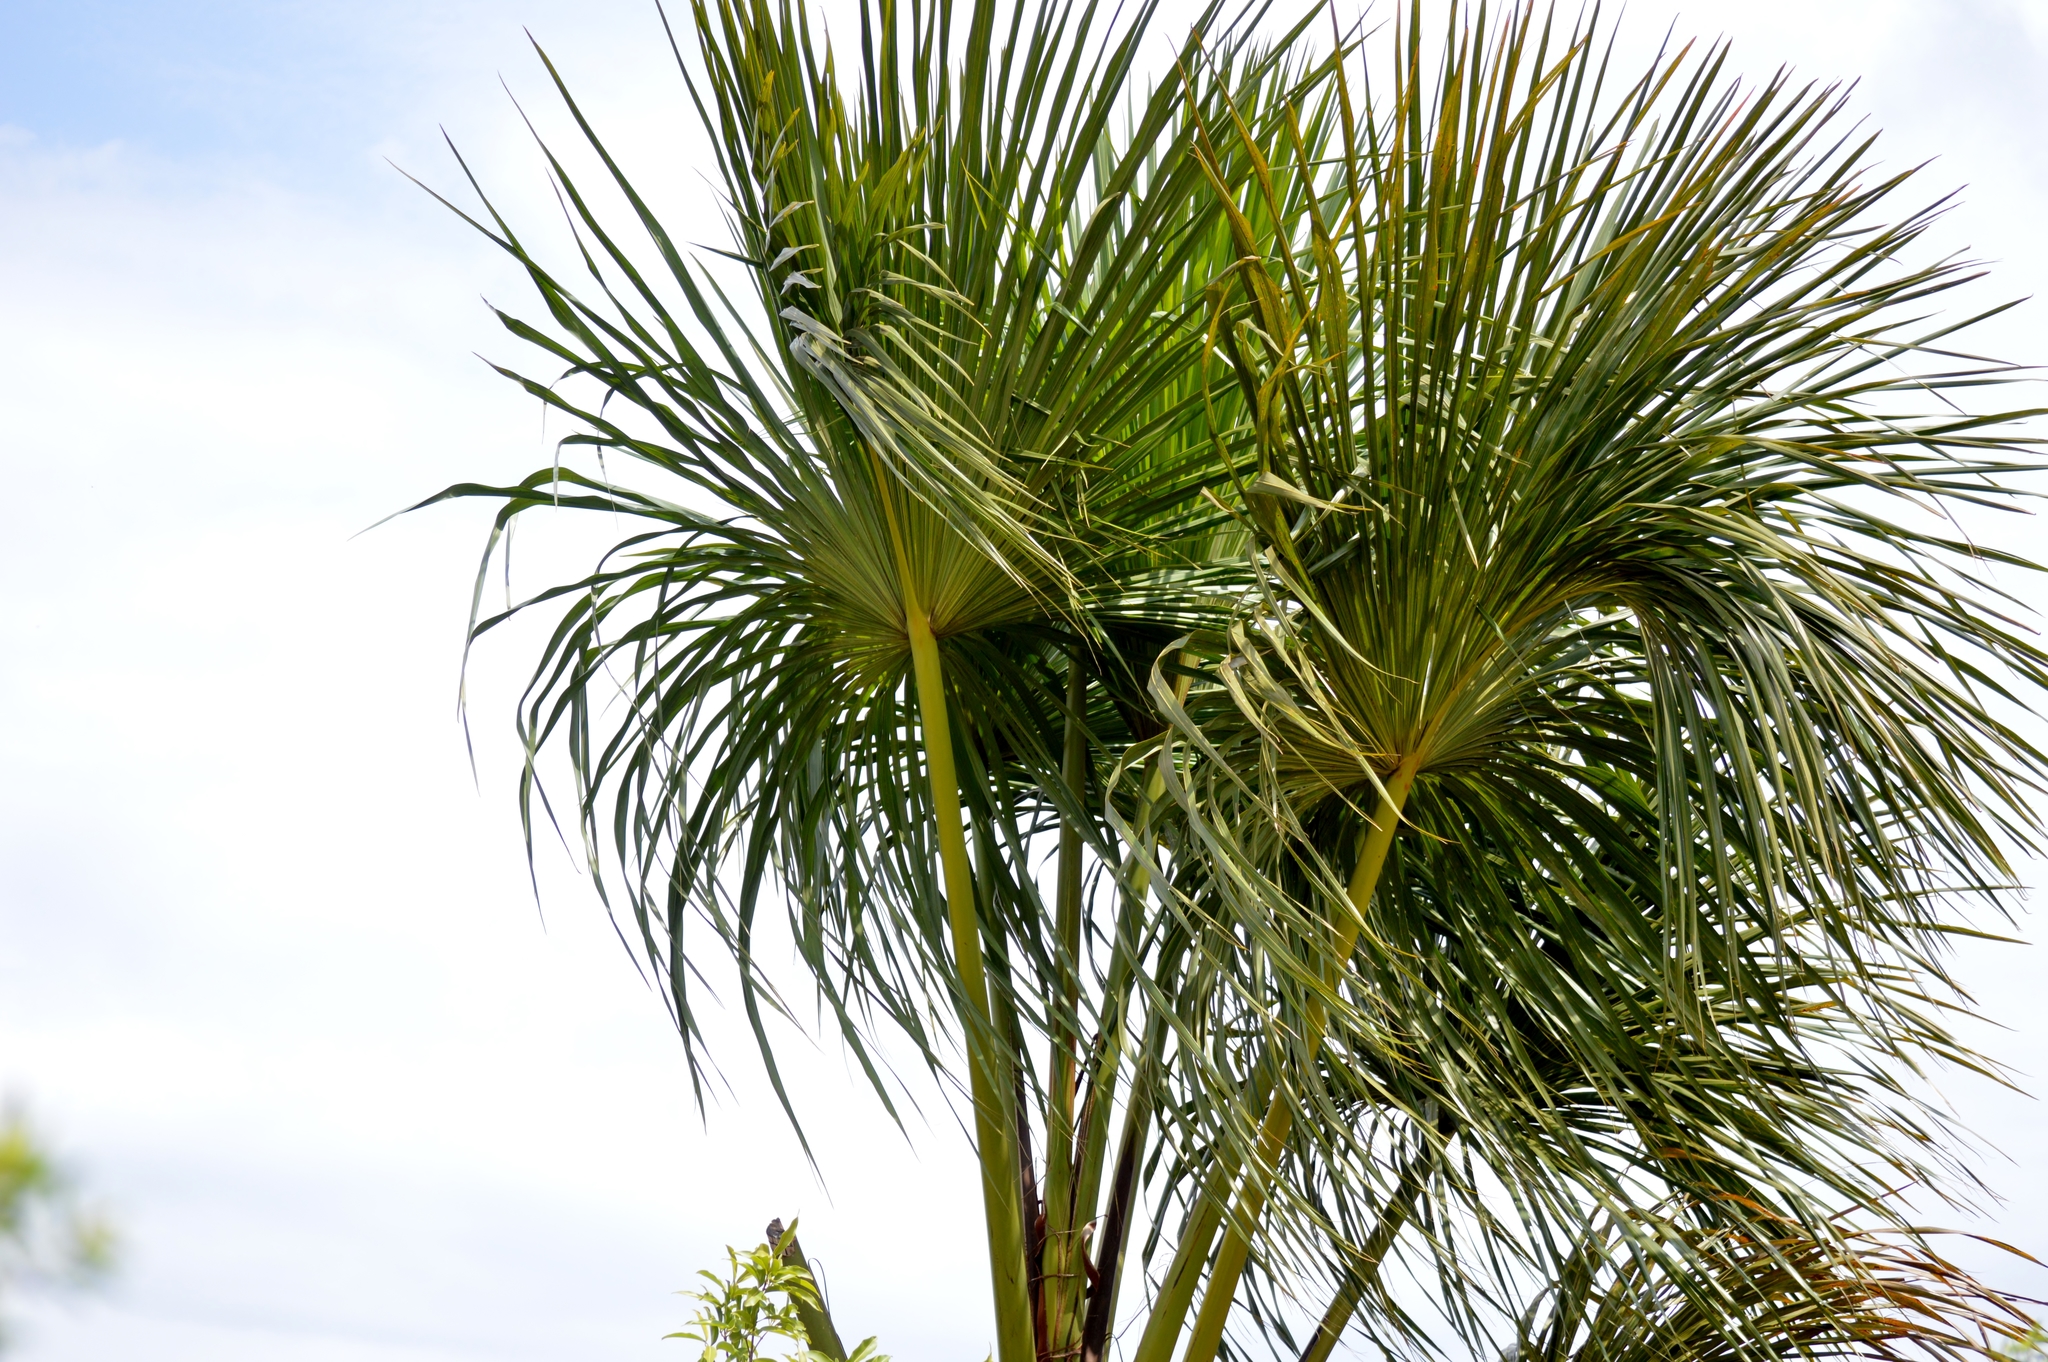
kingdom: Plantae
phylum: Tracheophyta
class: Liliopsida
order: Arecales
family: Arecaceae
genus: Mauritia
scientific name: Mauritia flexuosa
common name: Tree-of-life
